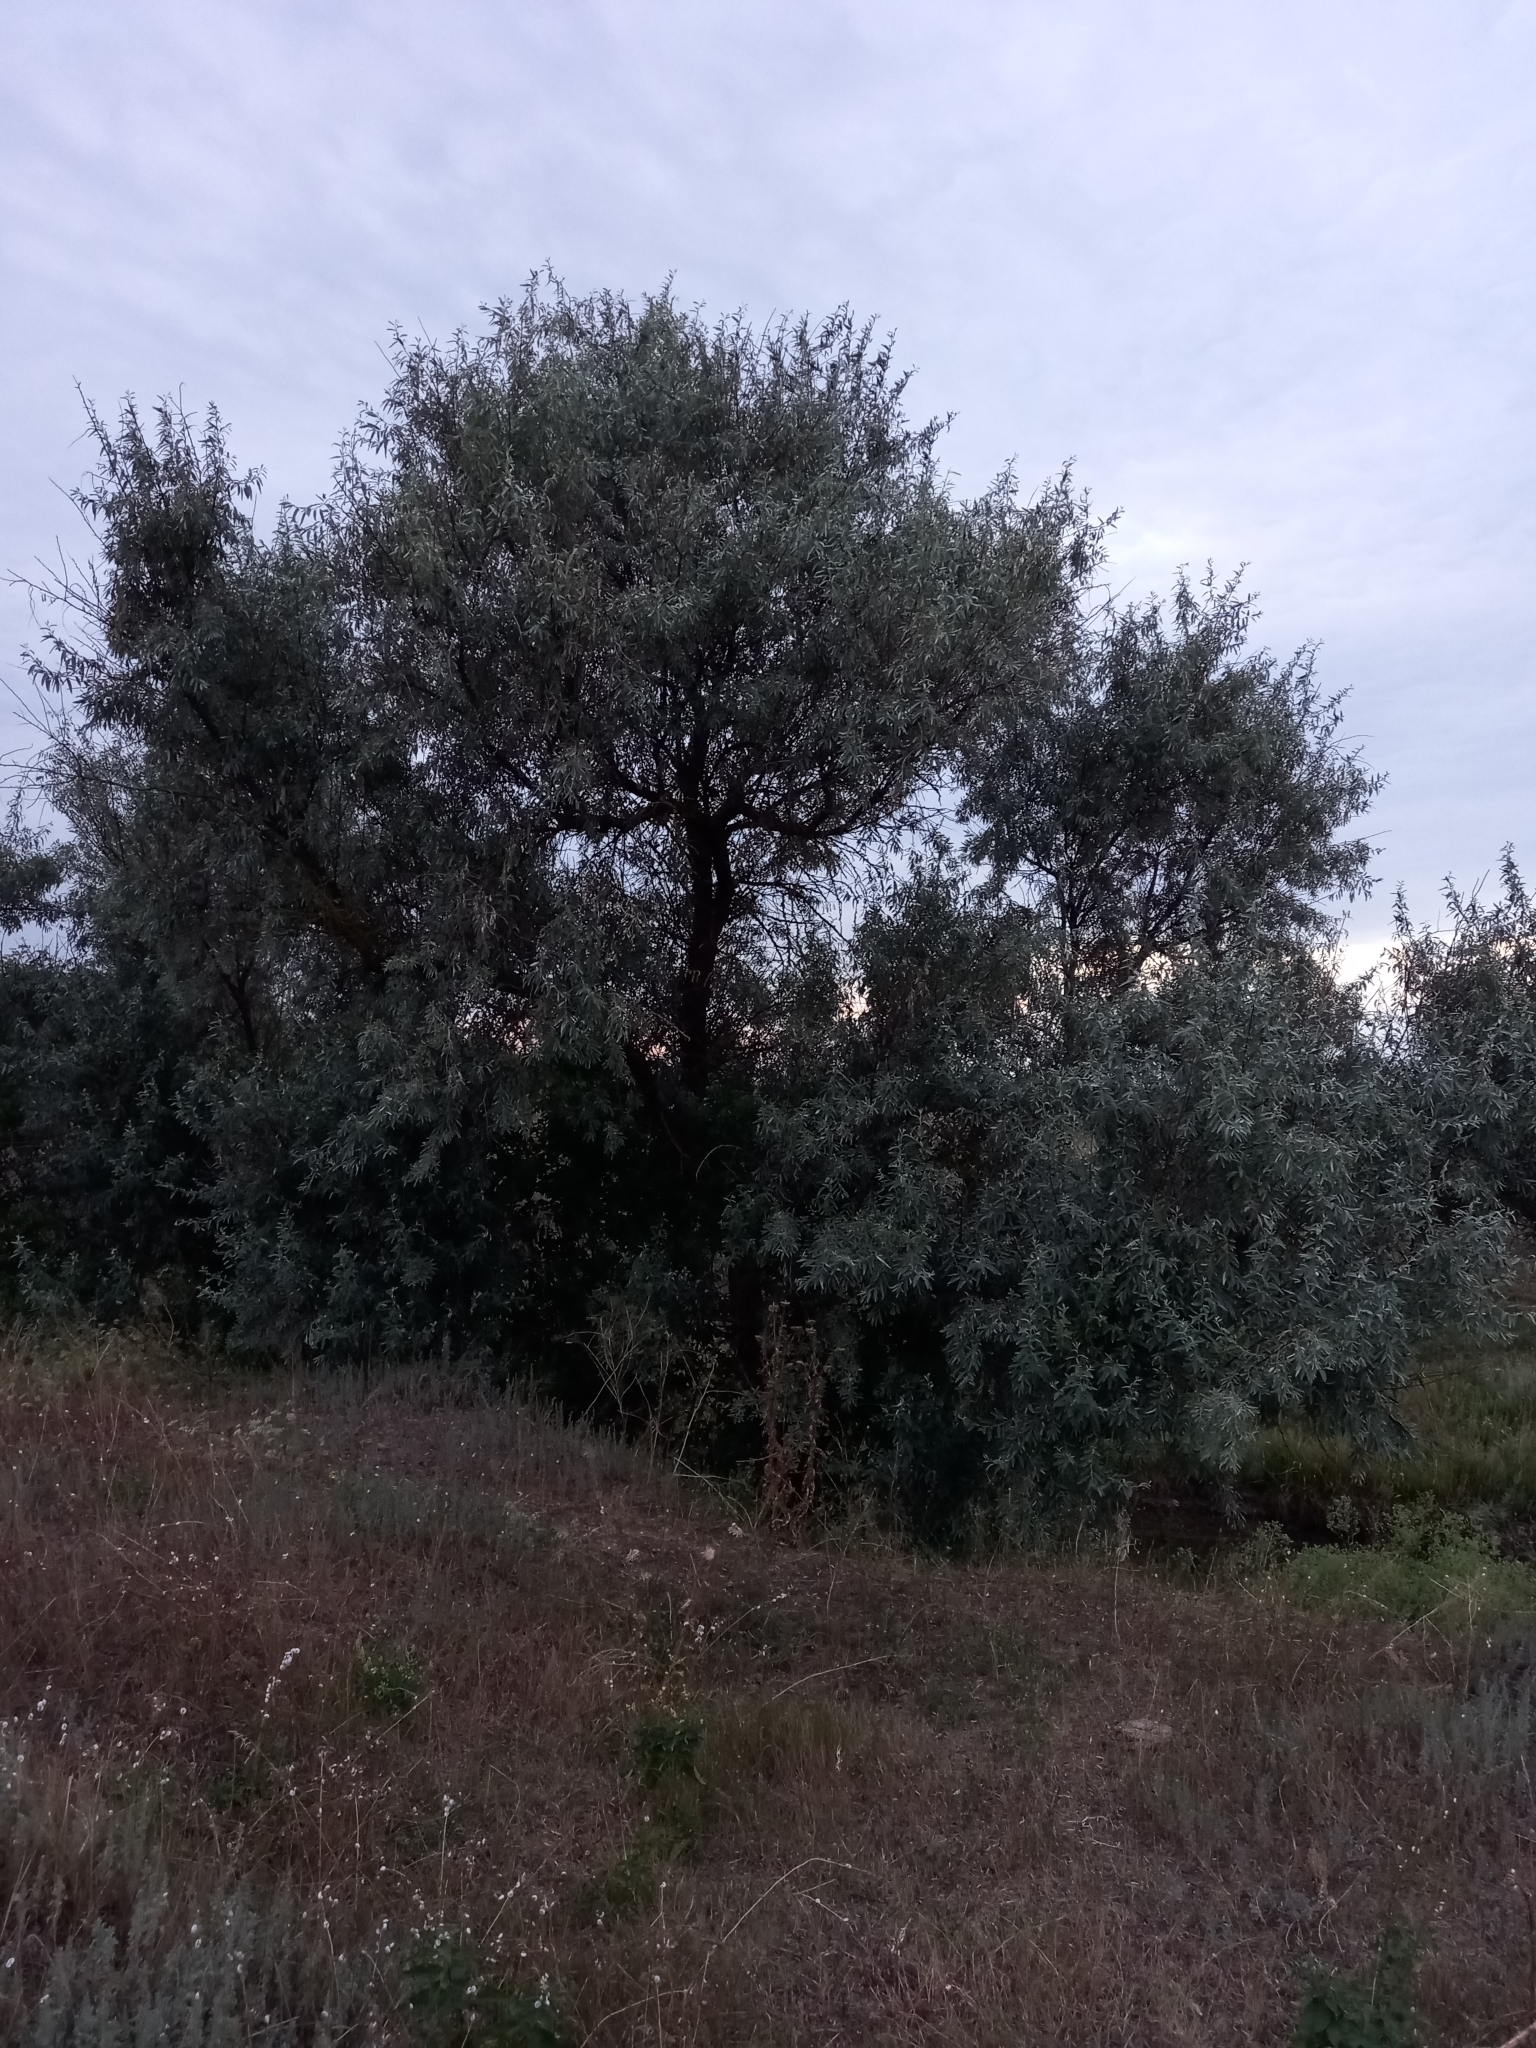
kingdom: Plantae
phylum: Tracheophyta
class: Magnoliopsida
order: Rosales
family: Elaeagnaceae
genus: Elaeagnus
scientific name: Elaeagnus angustifolia
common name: Russian olive
